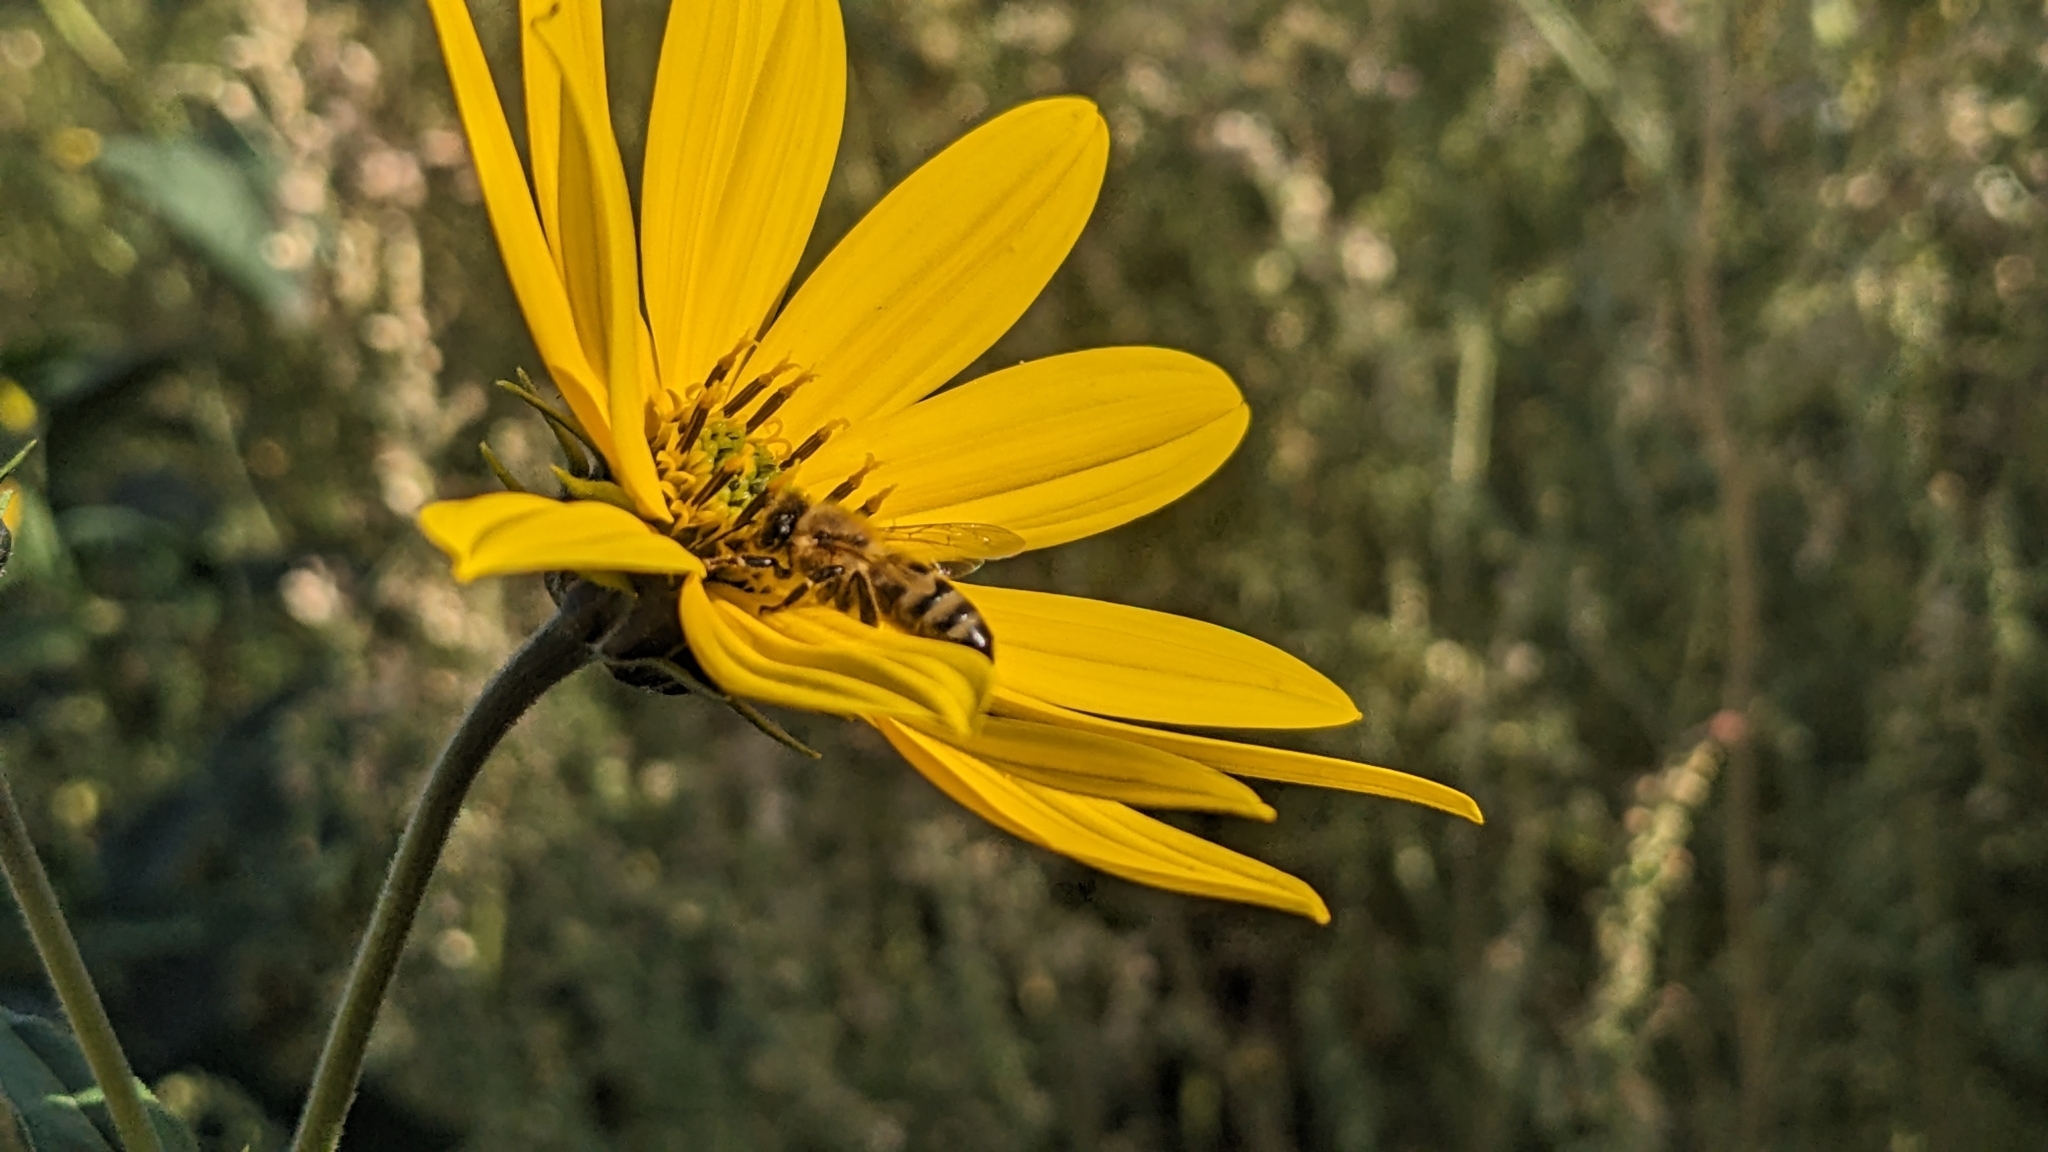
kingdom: Animalia
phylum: Arthropoda
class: Insecta
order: Hymenoptera
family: Apidae
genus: Apis
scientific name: Apis mellifera
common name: Honey bee
